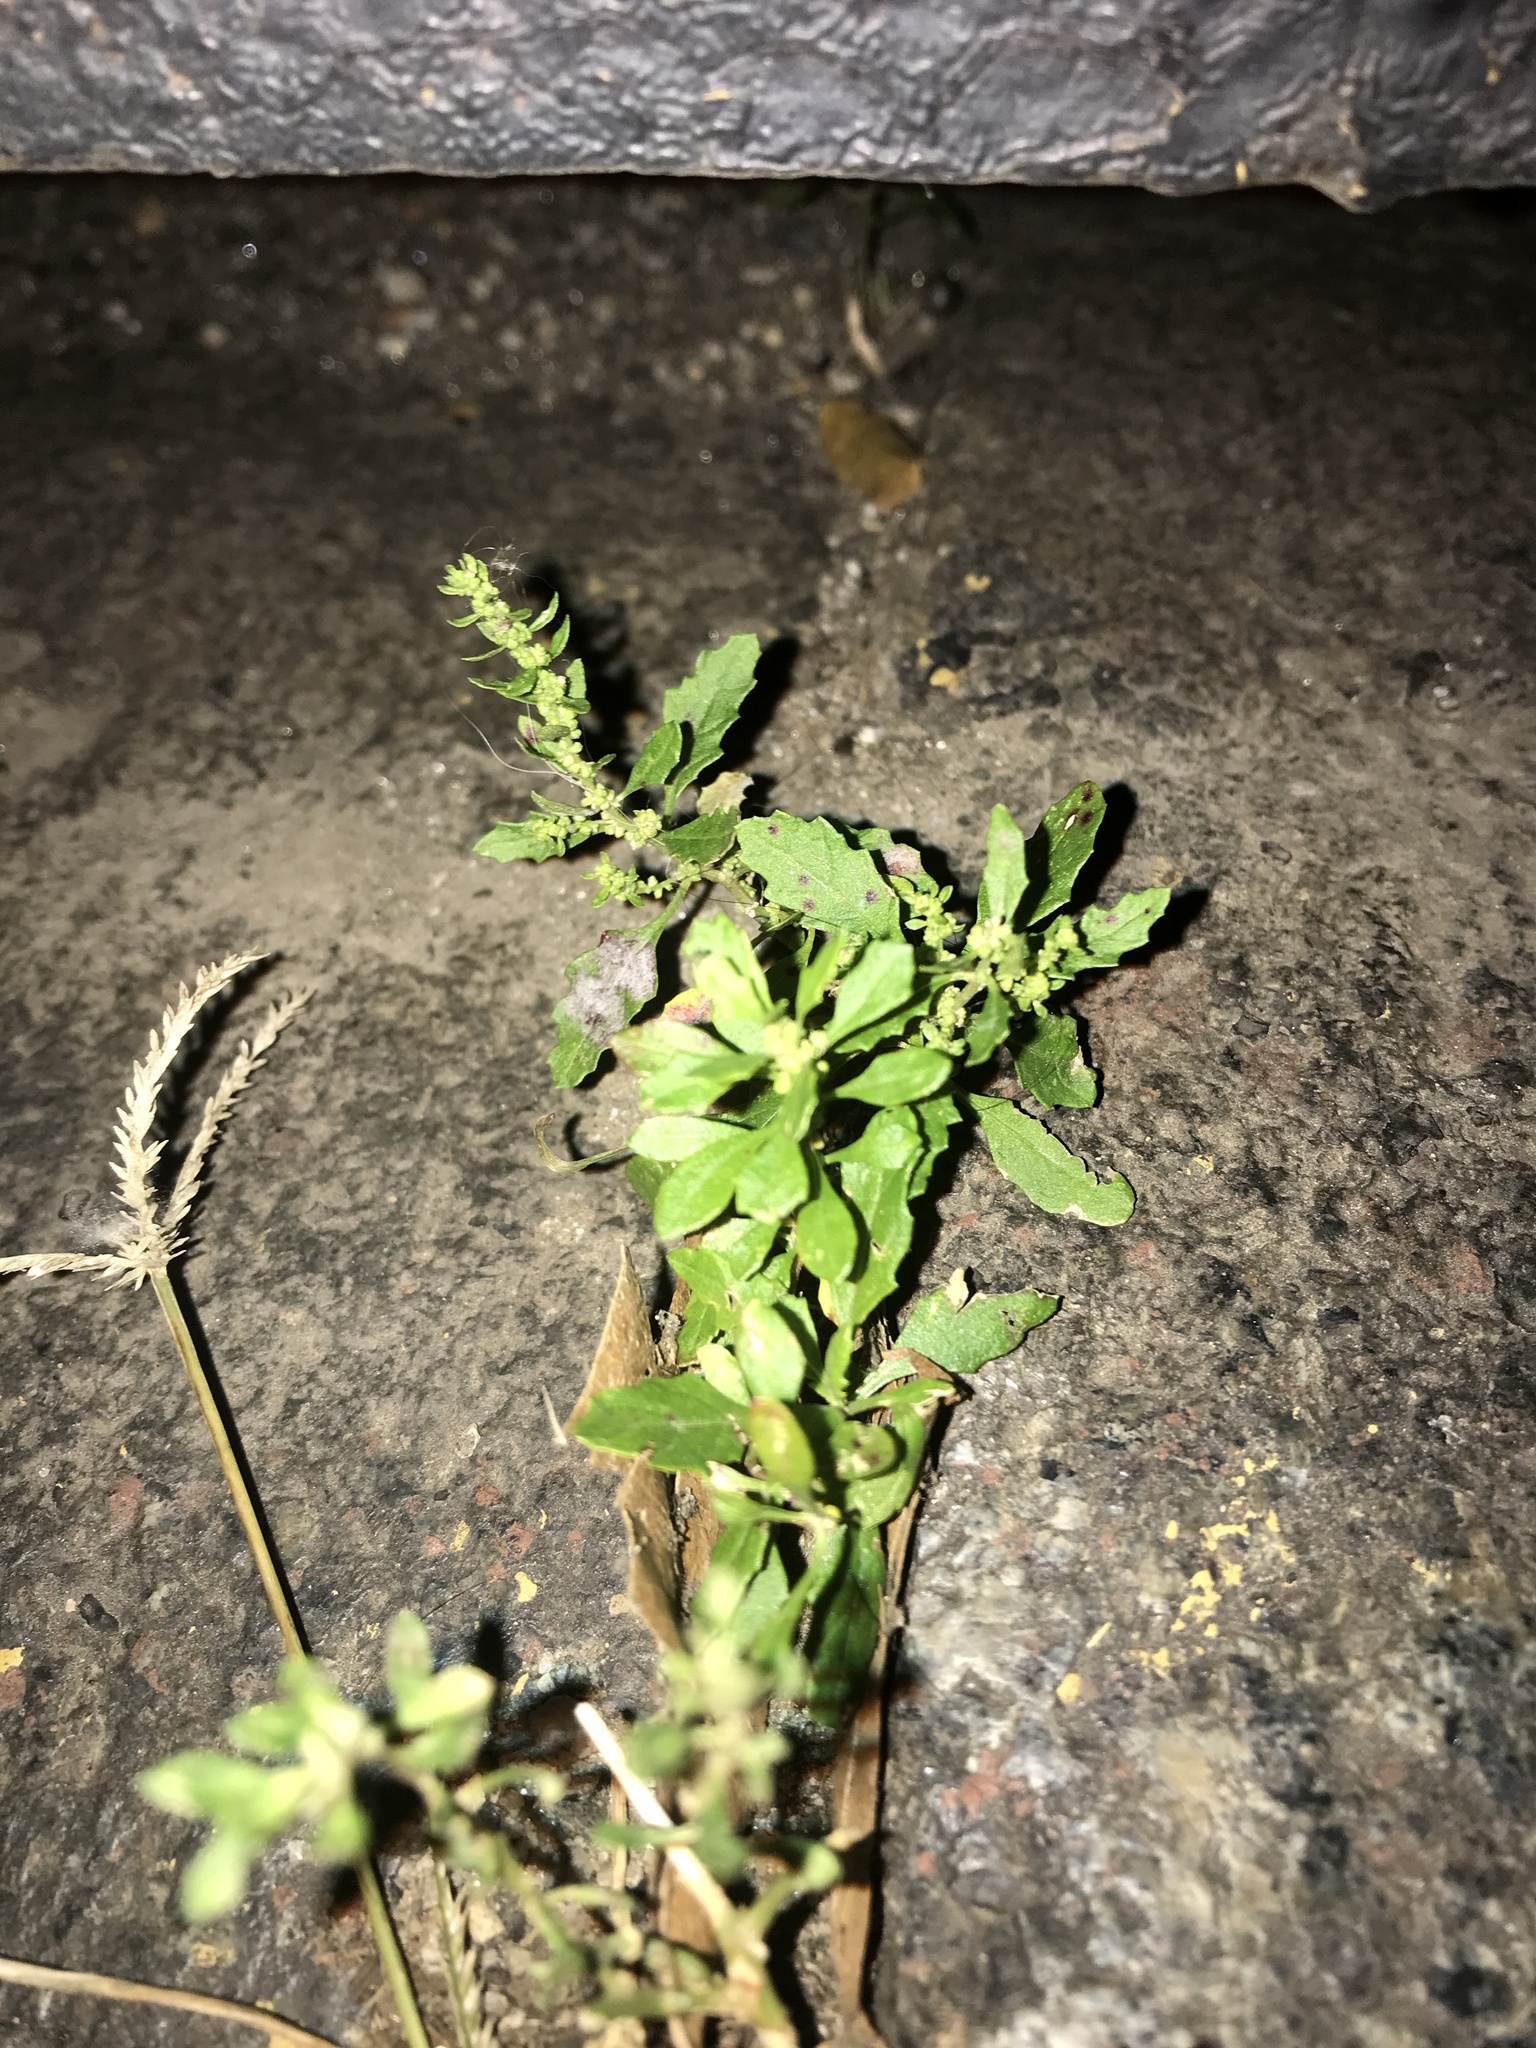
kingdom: Plantae
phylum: Tracheophyta
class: Magnoliopsida
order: Caryophyllales
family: Amaranthaceae
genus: Dysphania
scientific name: Dysphania ambrosioides
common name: Wormseed
